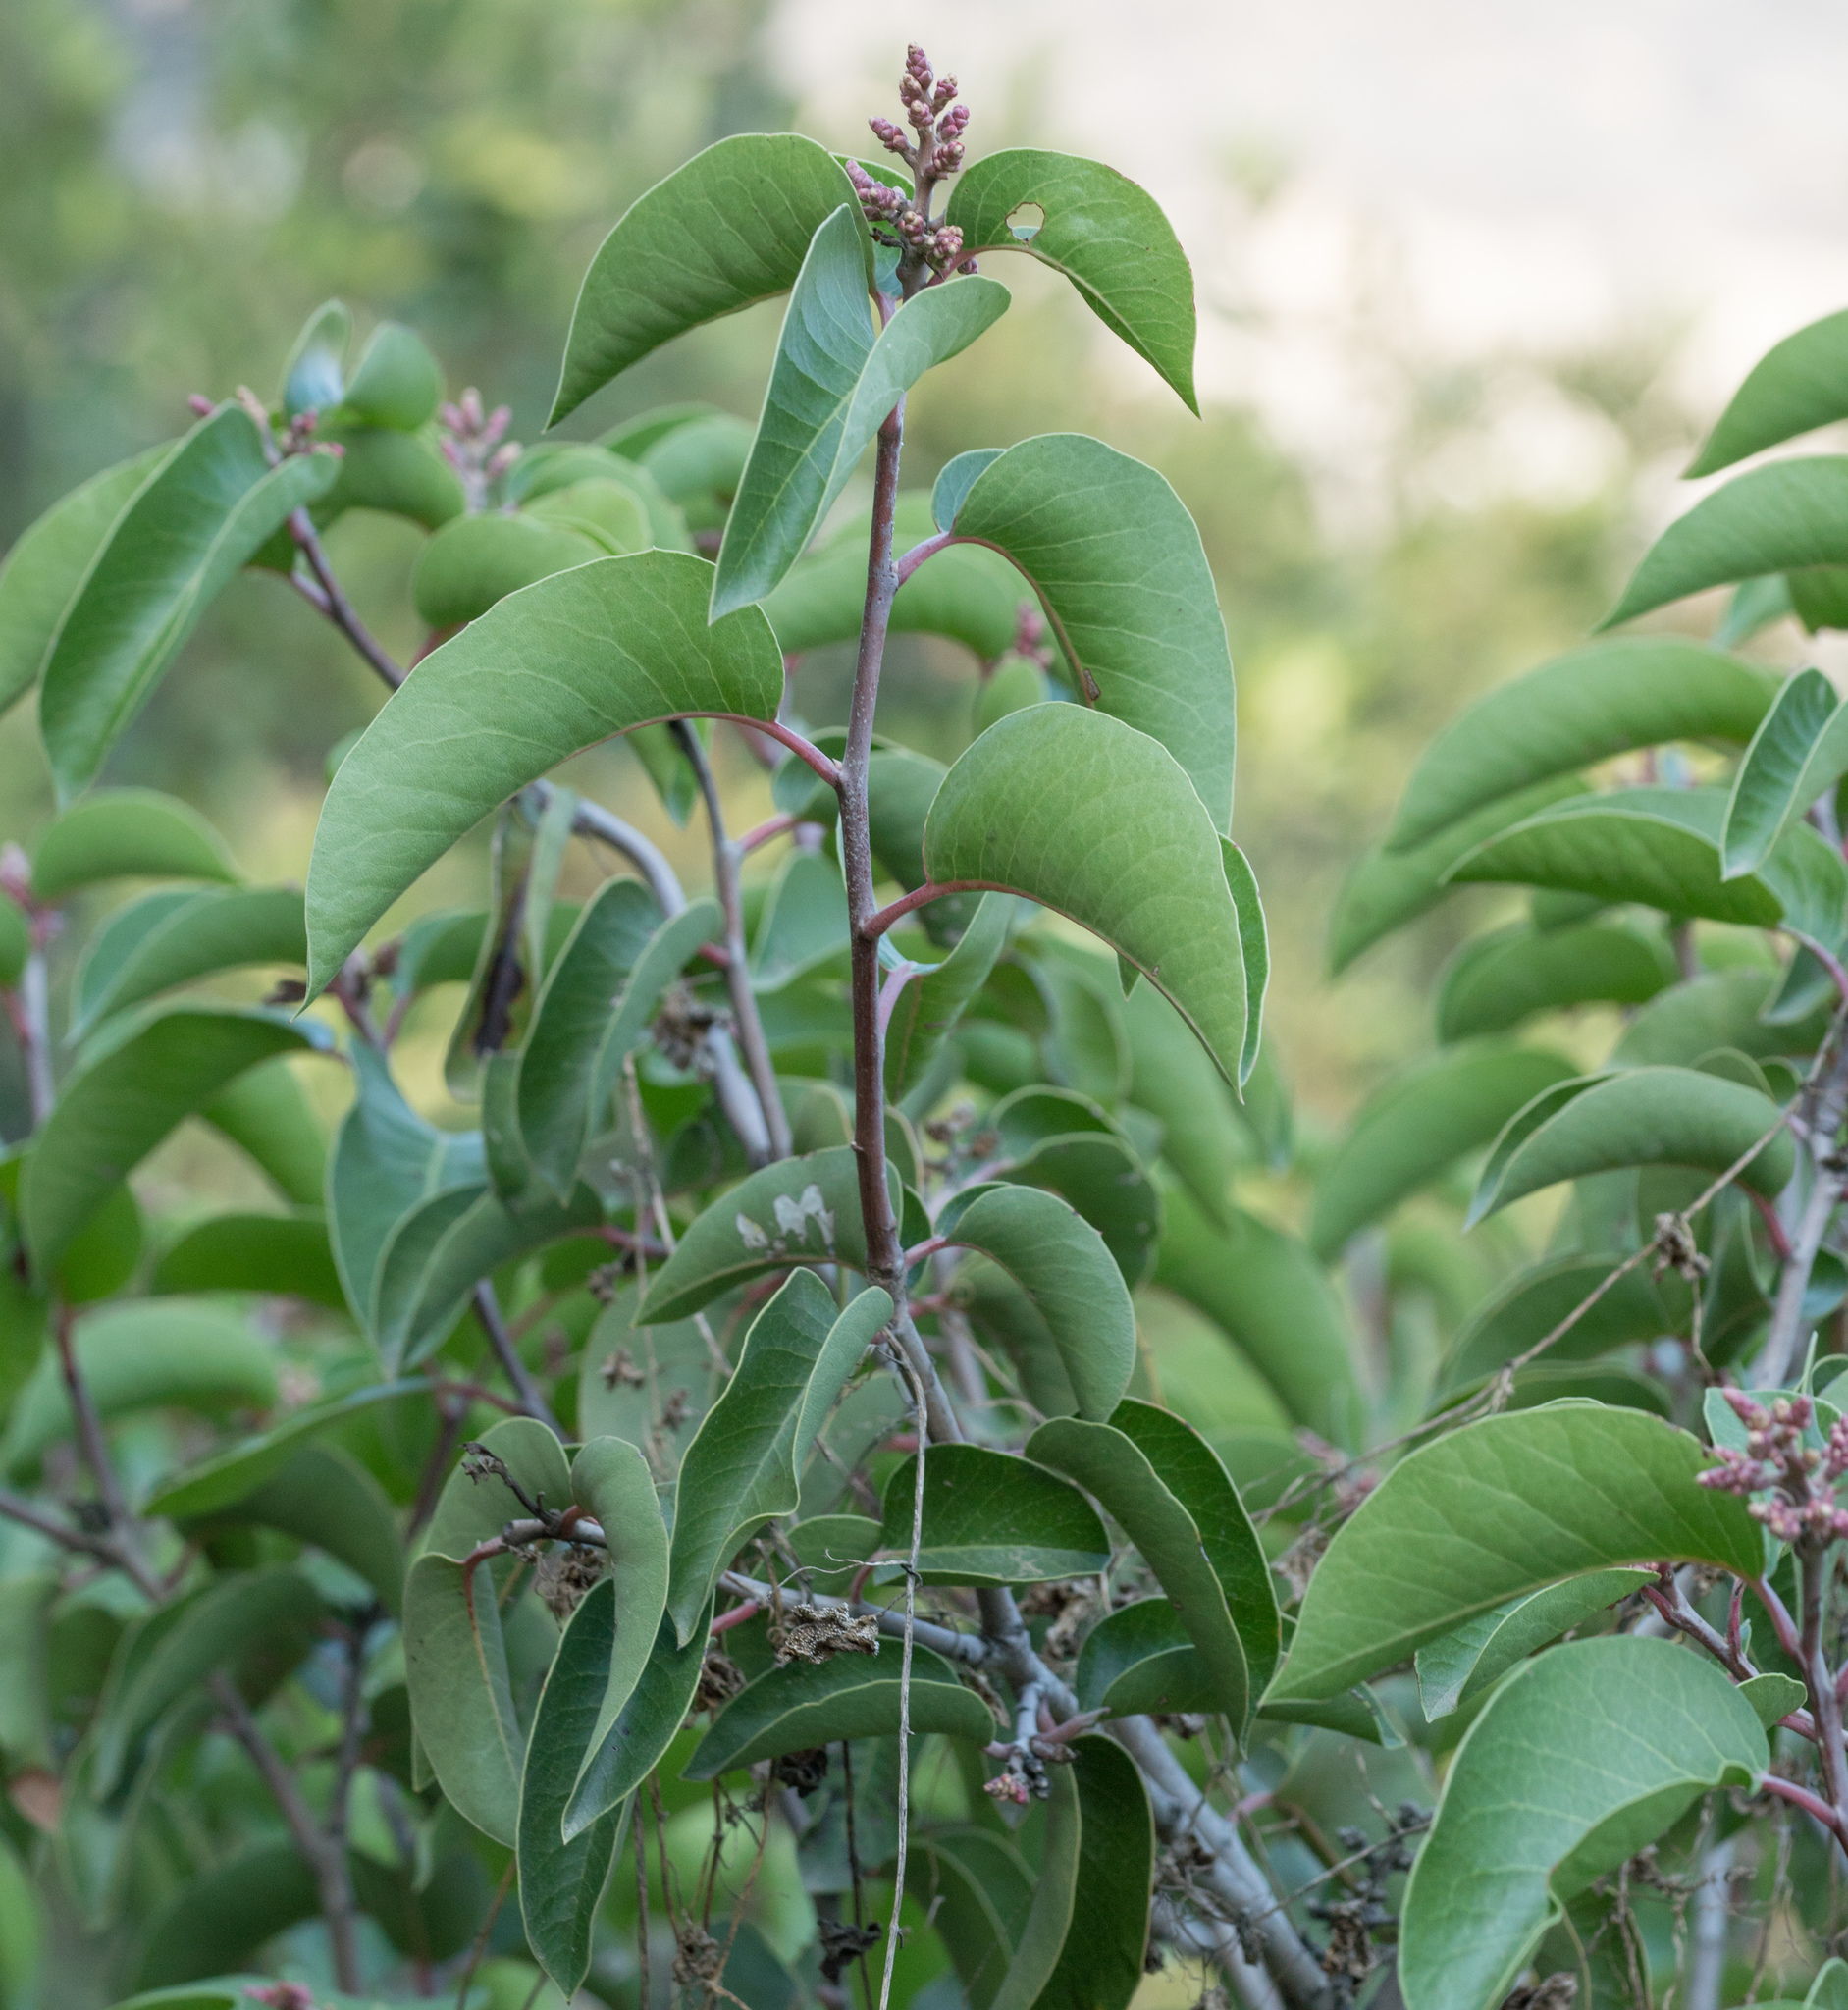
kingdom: Plantae
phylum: Tracheophyta
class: Magnoliopsida
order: Sapindales
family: Anacardiaceae
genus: Rhus
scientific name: Rhus ovata
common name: Sugar sumac
